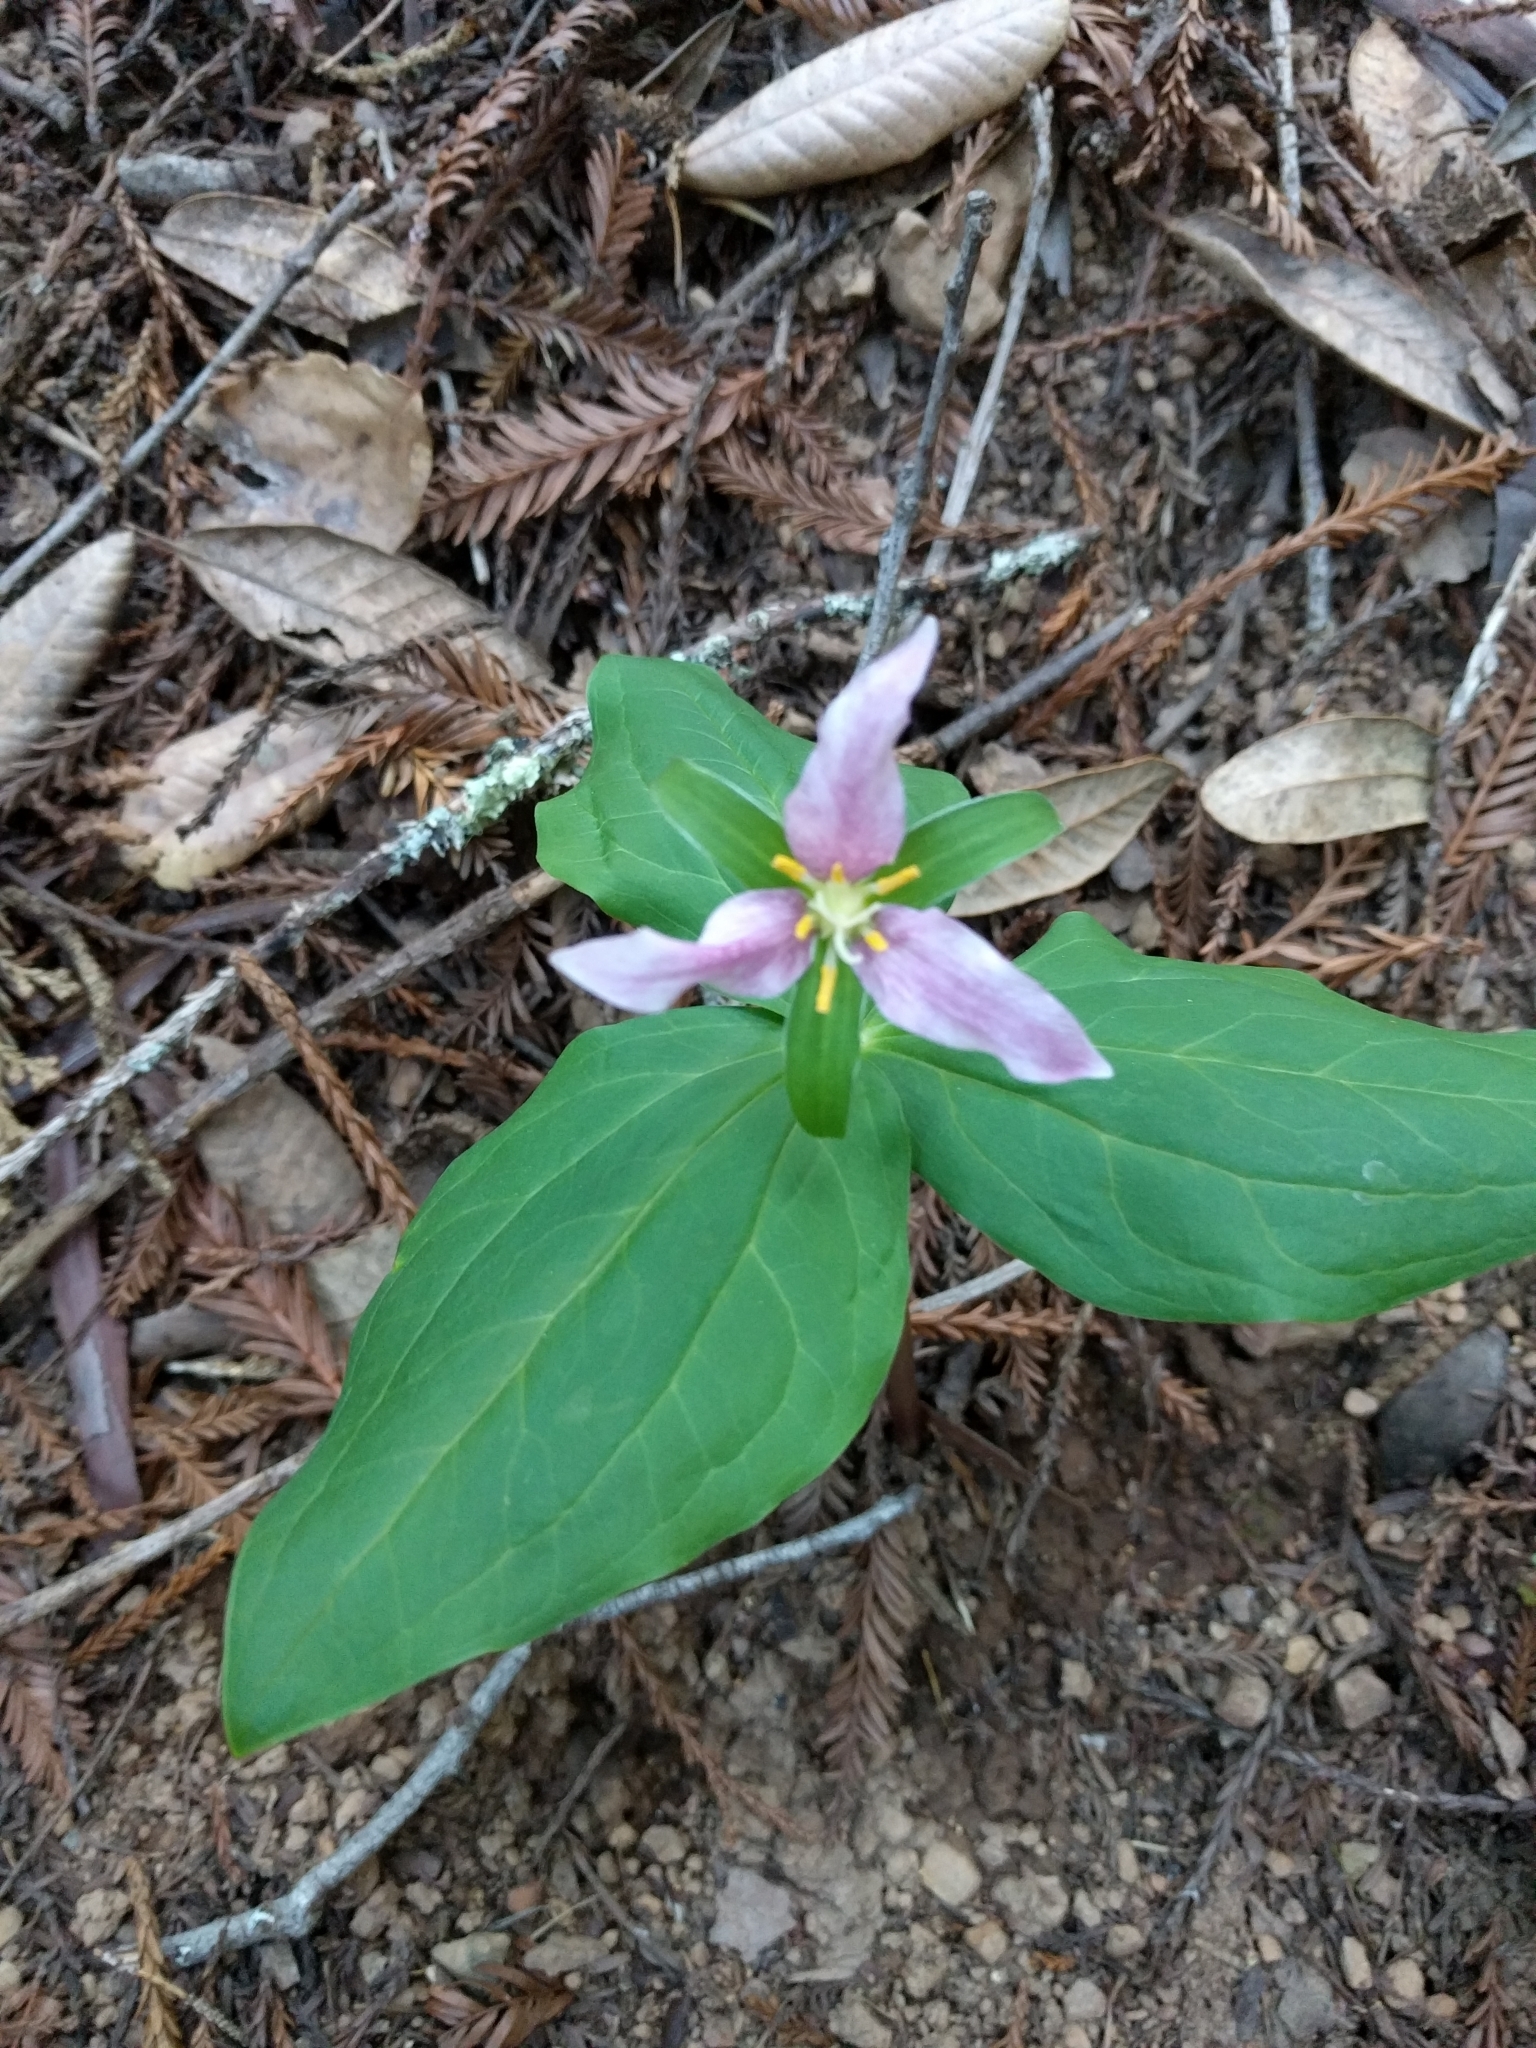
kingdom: Plantae
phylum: Tracheophyta
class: Liliopsida
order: Liliales
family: Melanthiaceae
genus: Trillium
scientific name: Trillium ovatum
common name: Pacific trillium
